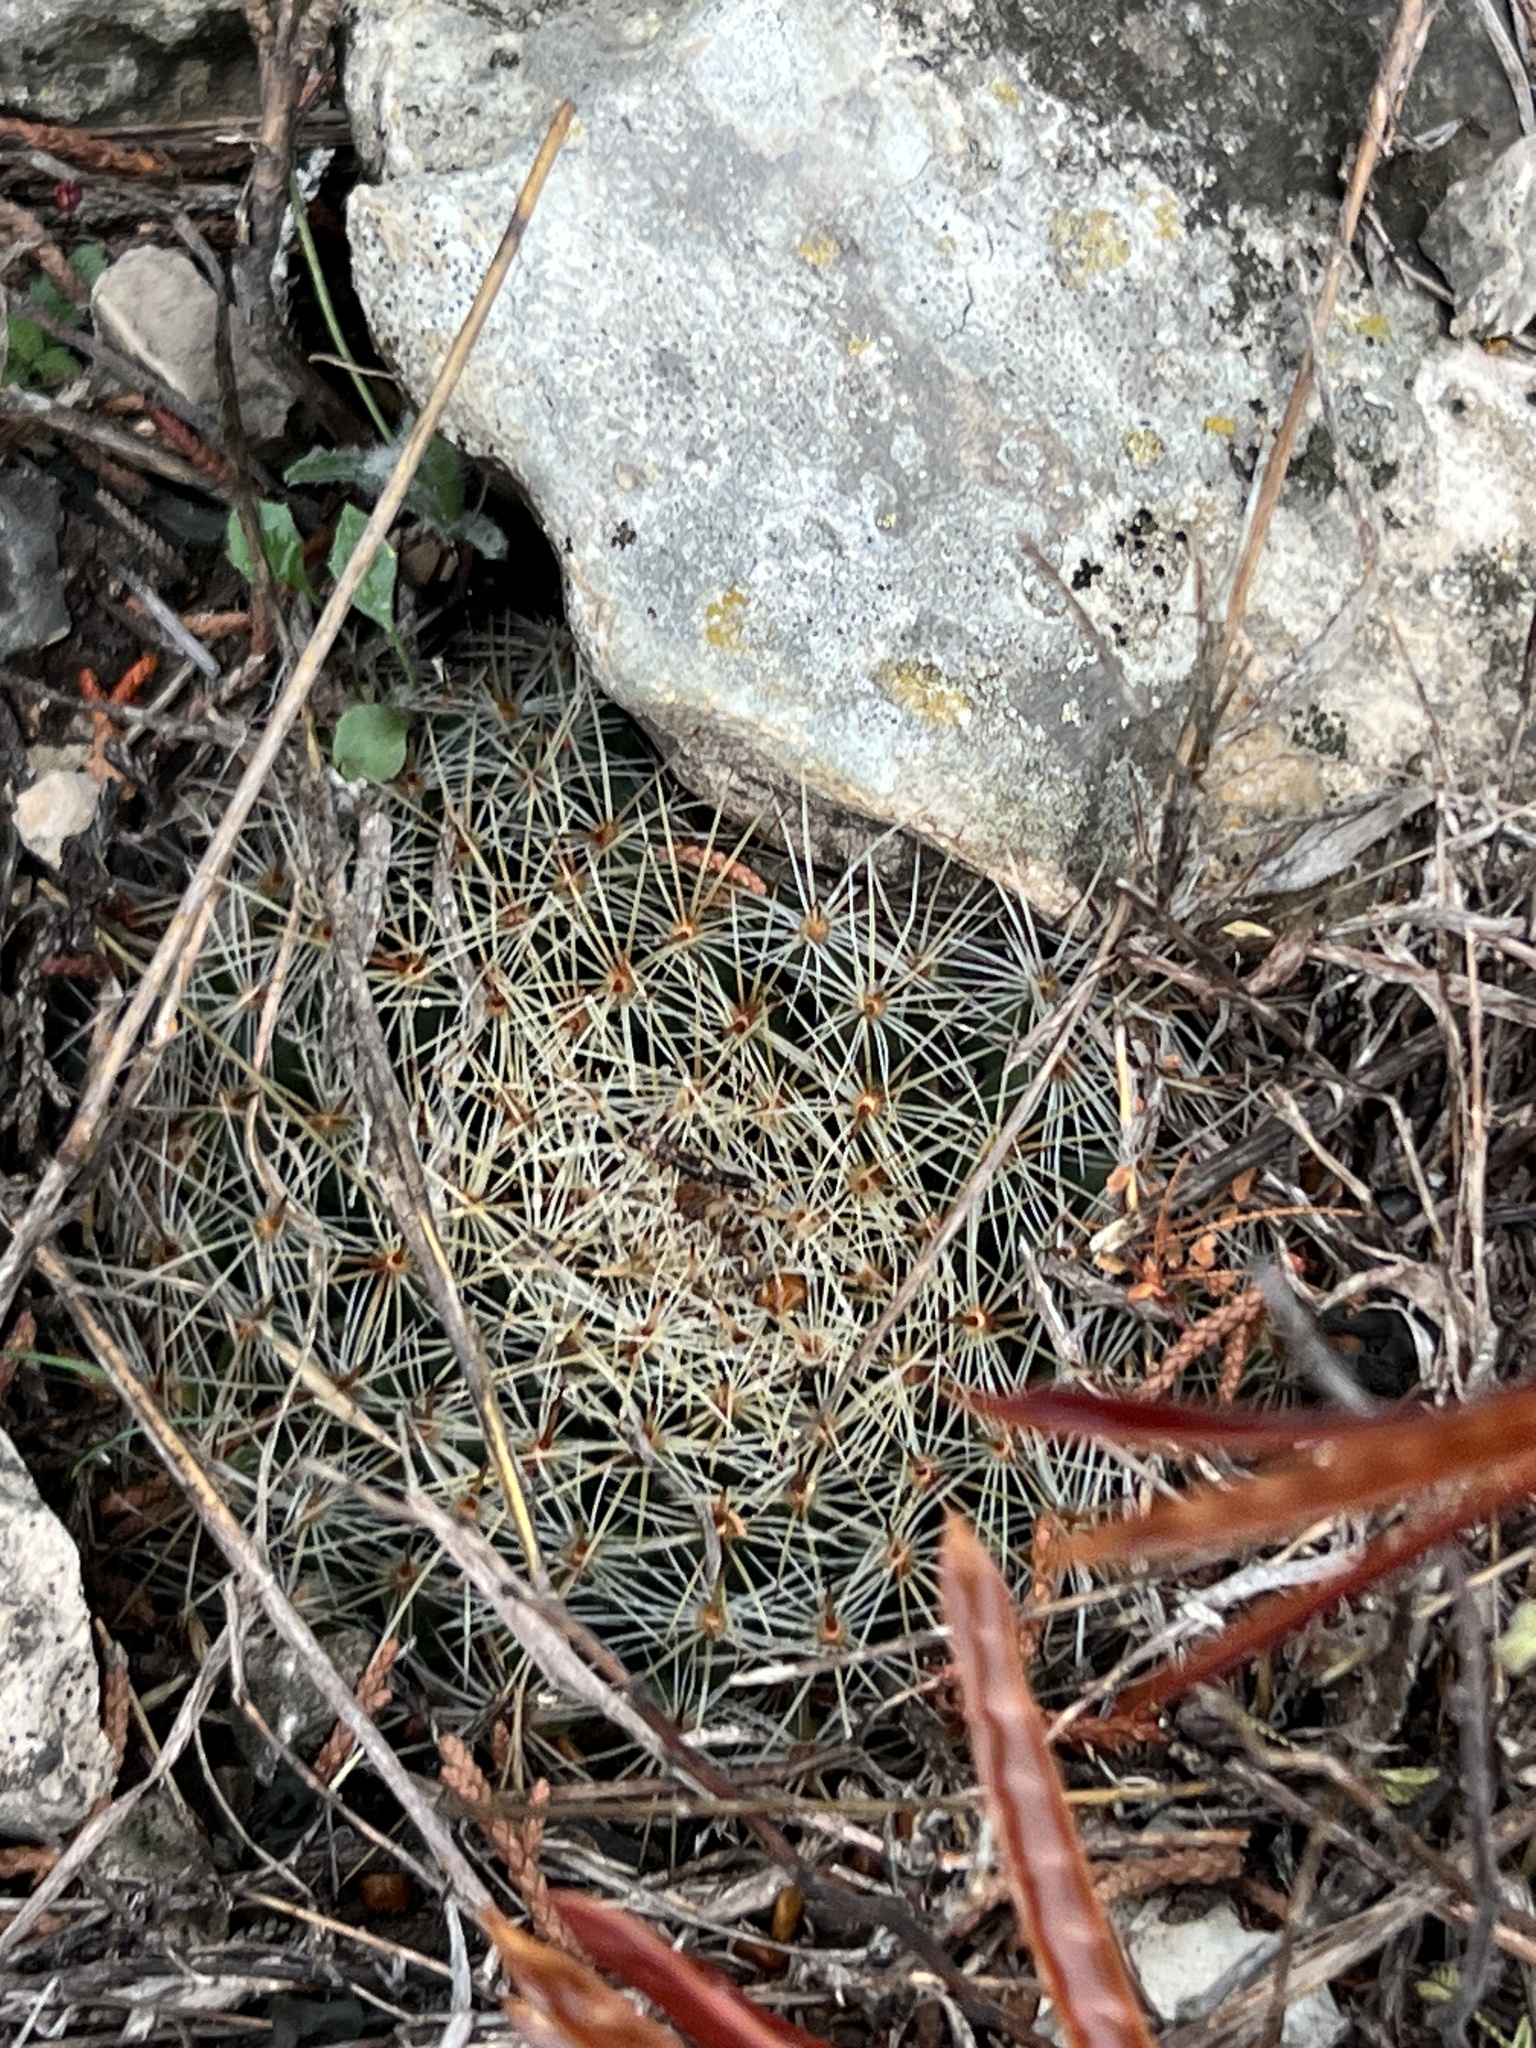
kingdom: Plantae
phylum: Tracheophyta
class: Magnoliopsida
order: Caryophyllales
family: Cactaceae
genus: Mammillaria
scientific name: Mammillaria heyderi
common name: Little nipple cactus
